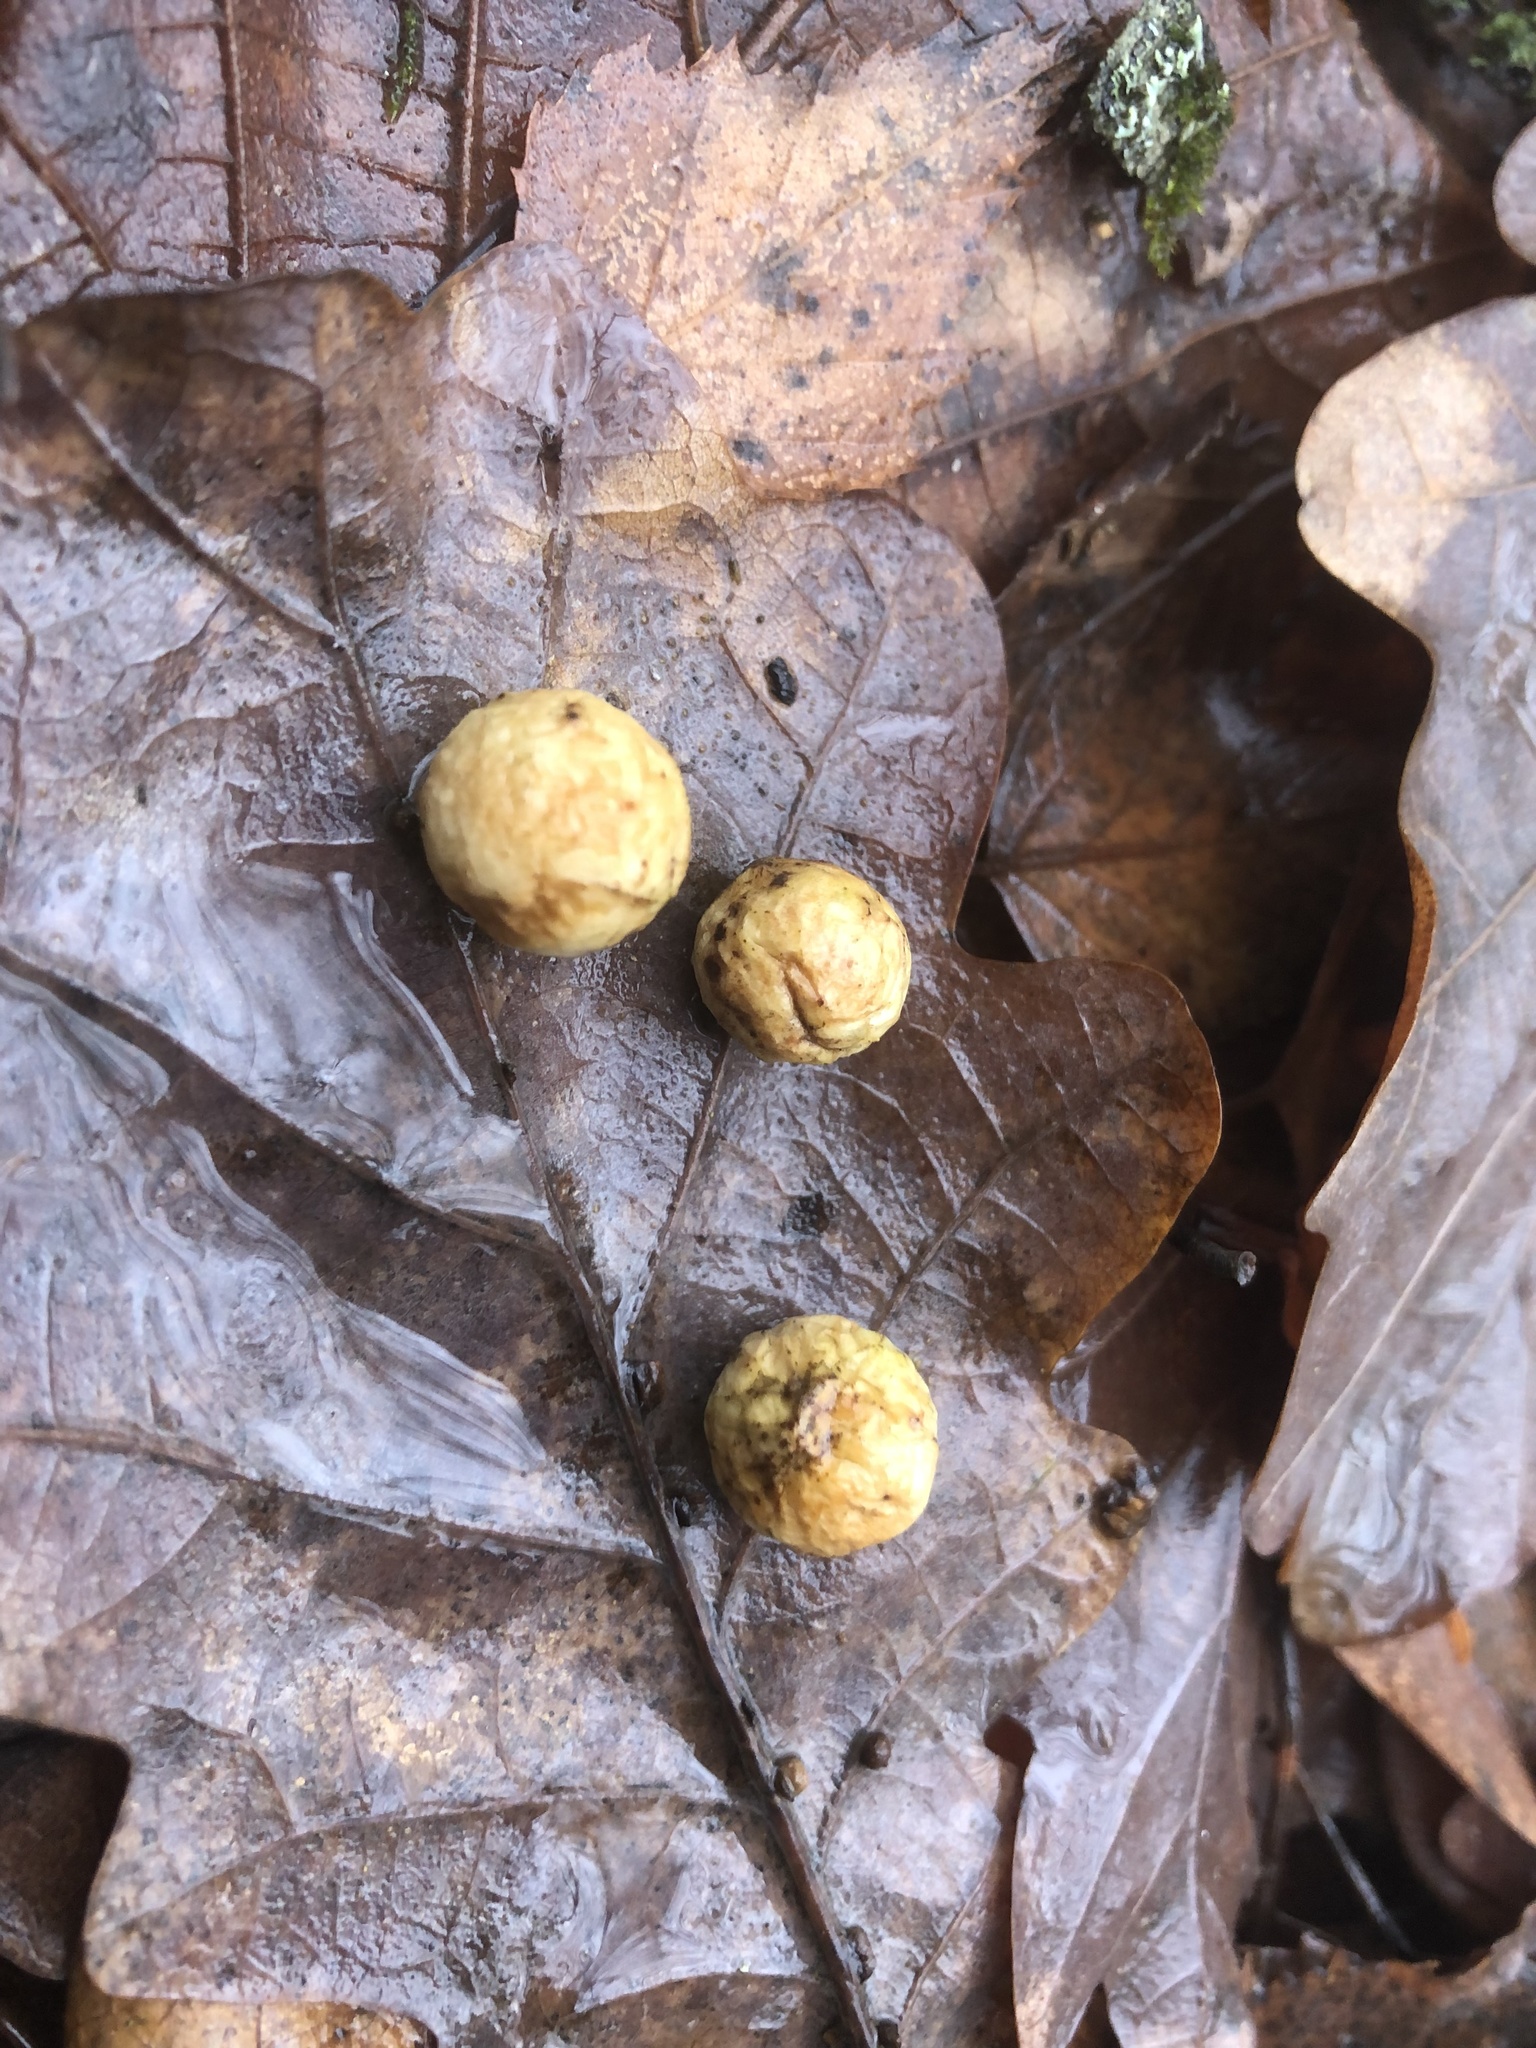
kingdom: Animalia
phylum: Arthropoda
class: Insecta
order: Hymenoptera
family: Cynipidae
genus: Cynips
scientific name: Cynips quercusfolii
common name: Cherry gall
